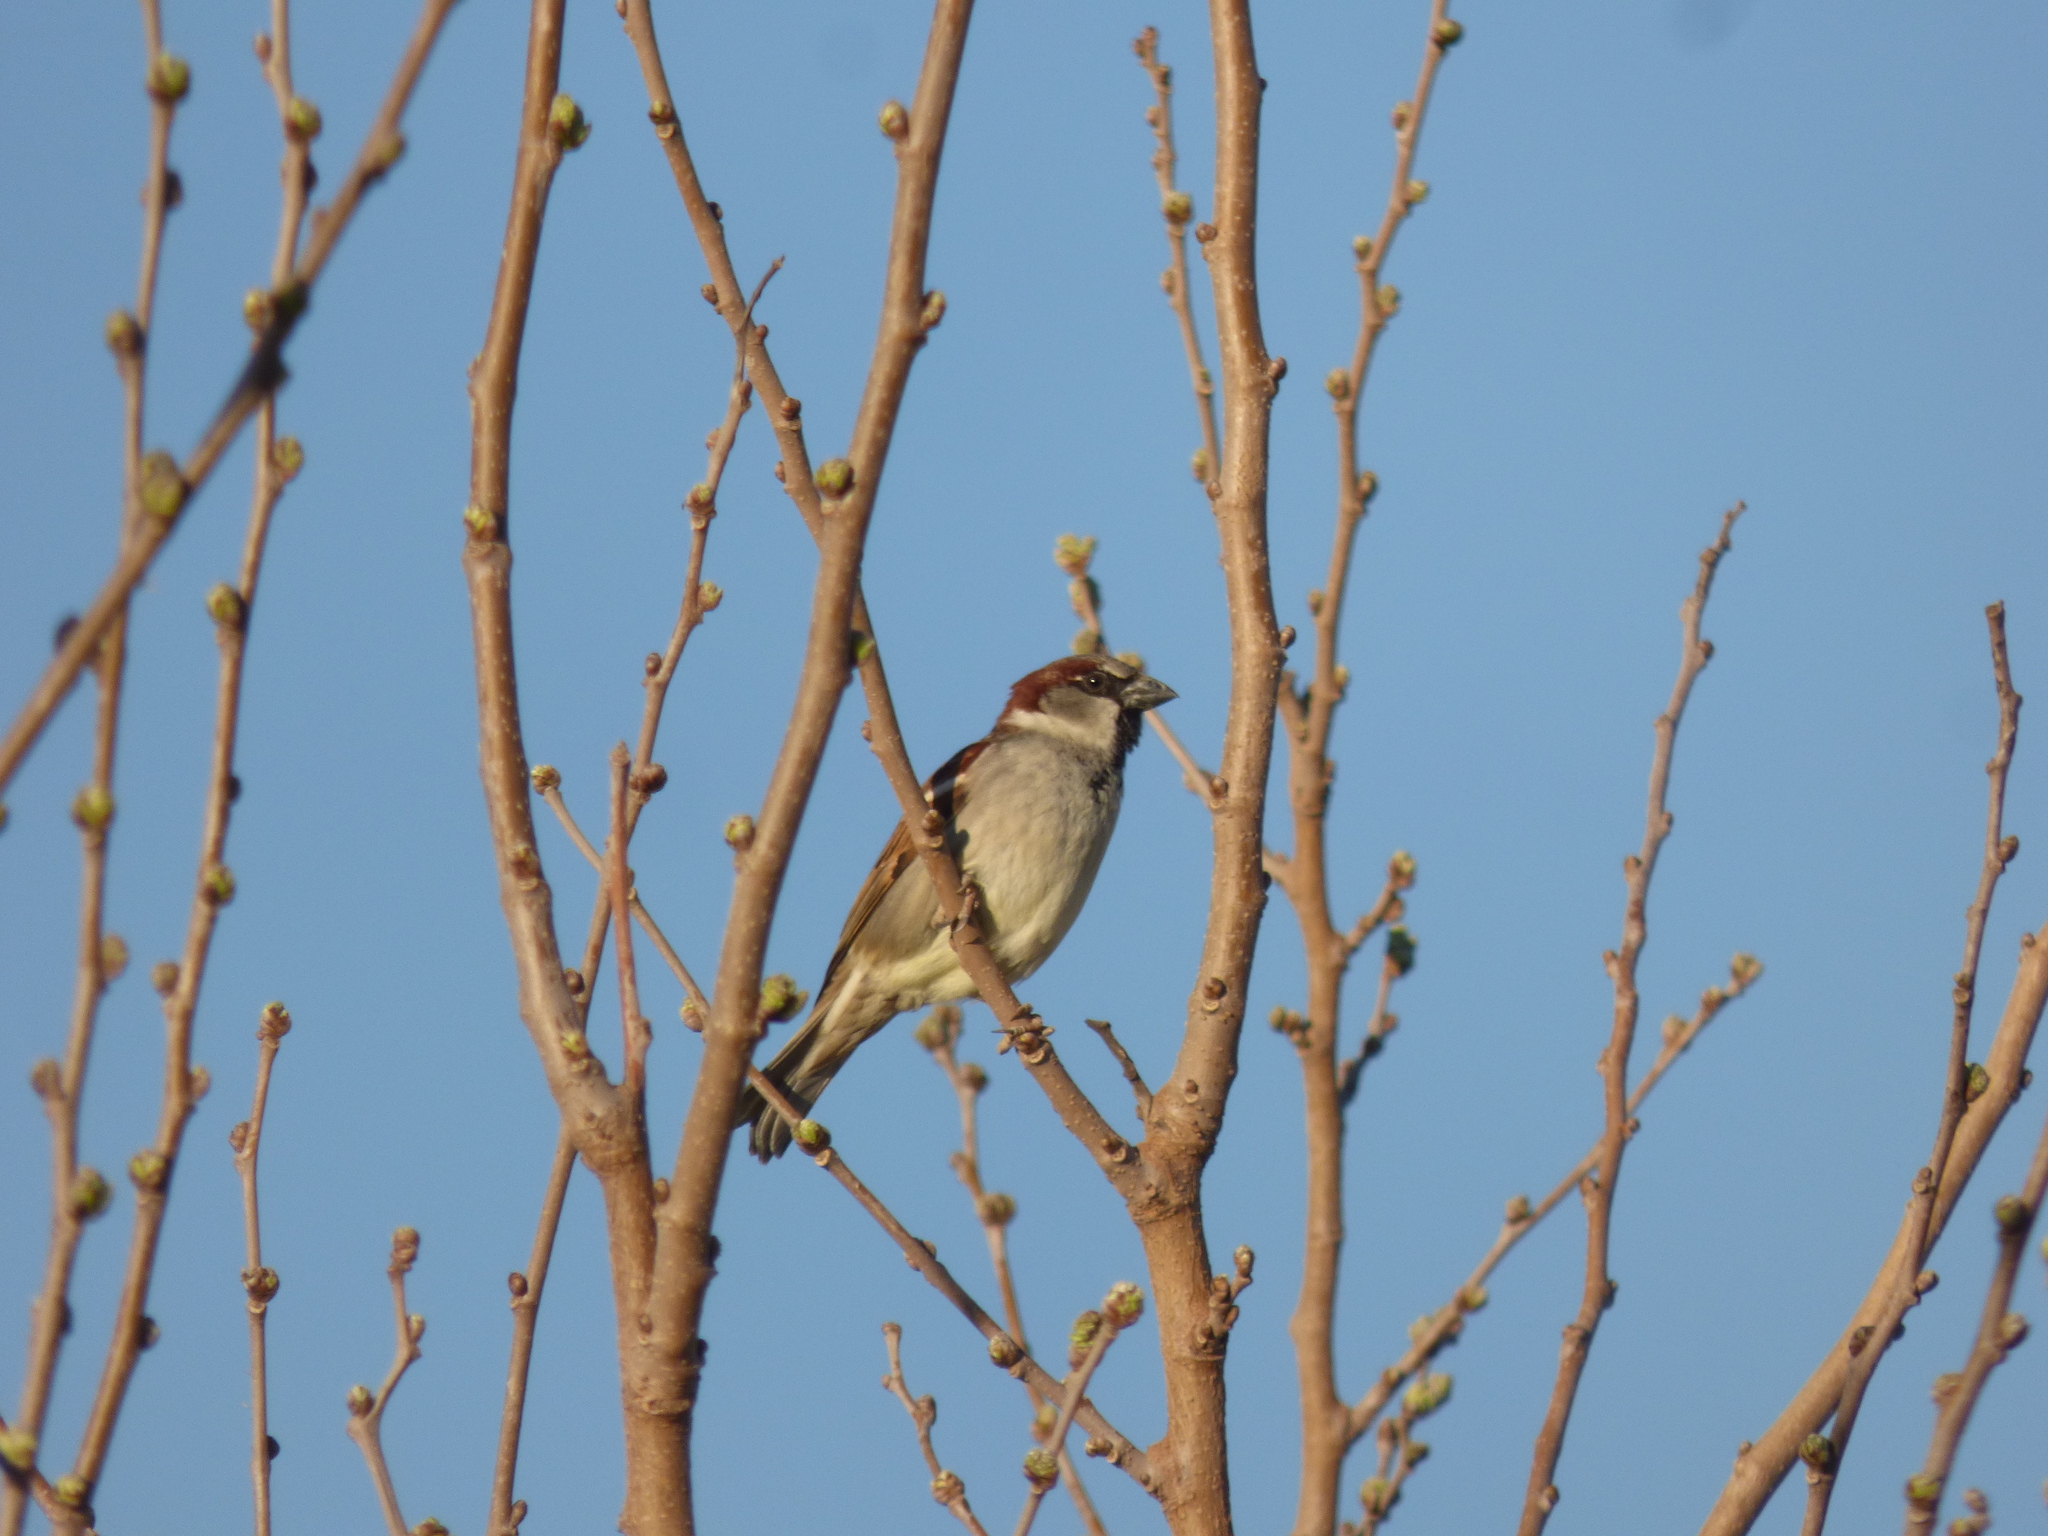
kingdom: Animalia
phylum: Chordata
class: Aves
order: Passeriformes
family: Passeridae
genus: Passer
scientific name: Passer domesticus
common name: House sparrow
